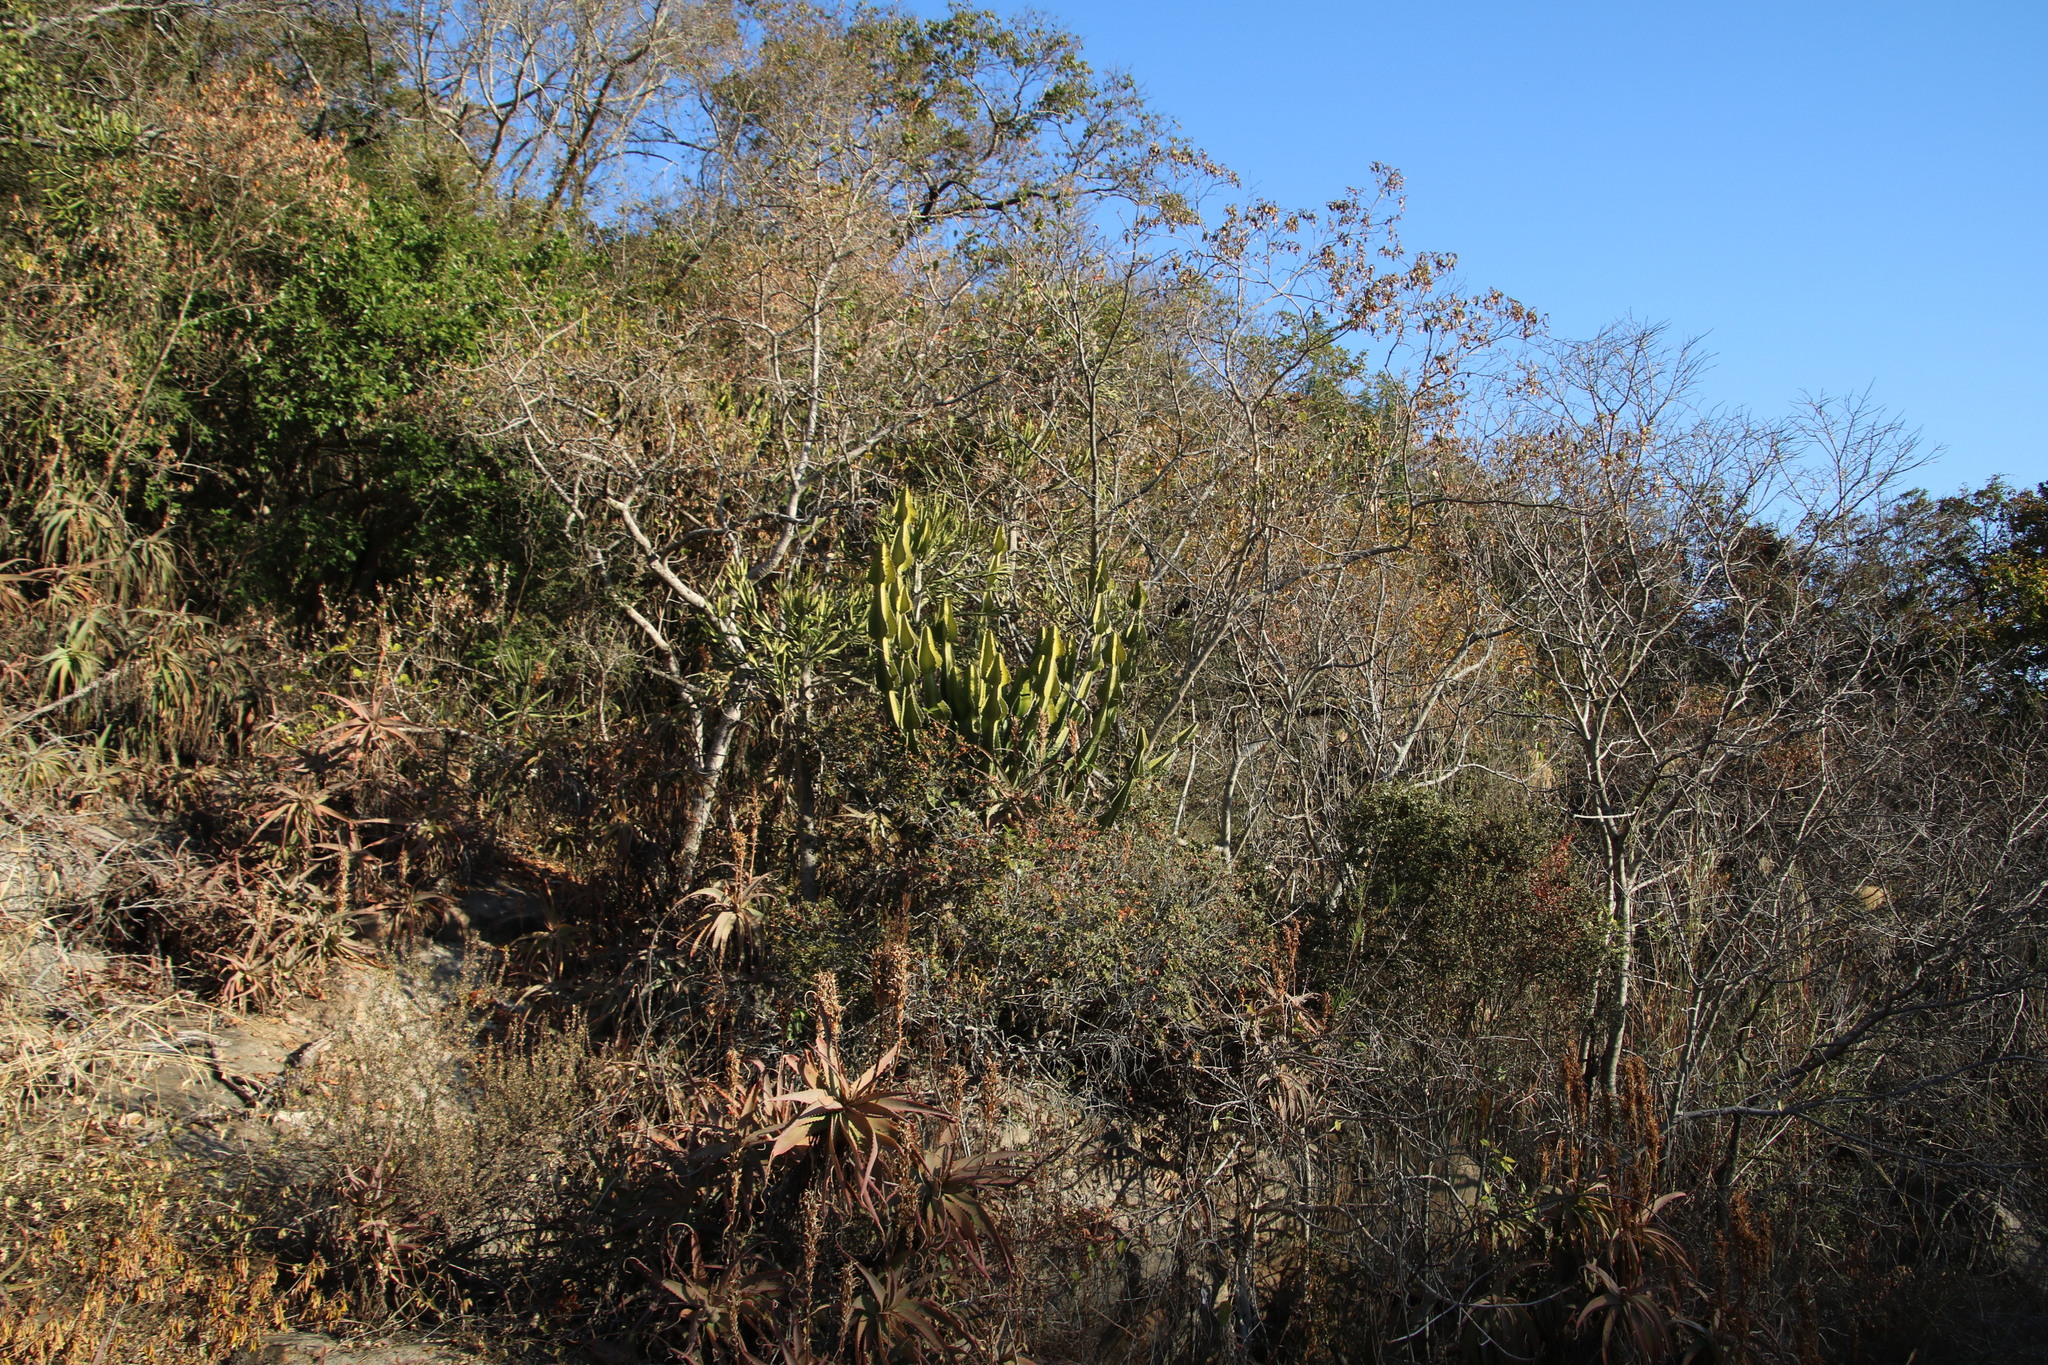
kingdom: Plantae
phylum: Tracheophyta
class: Magnoliopsida
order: Malpighiales
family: Euphorbiaceae
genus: Euphorbia
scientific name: Euphorbia cooperi
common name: Candelabra tree
